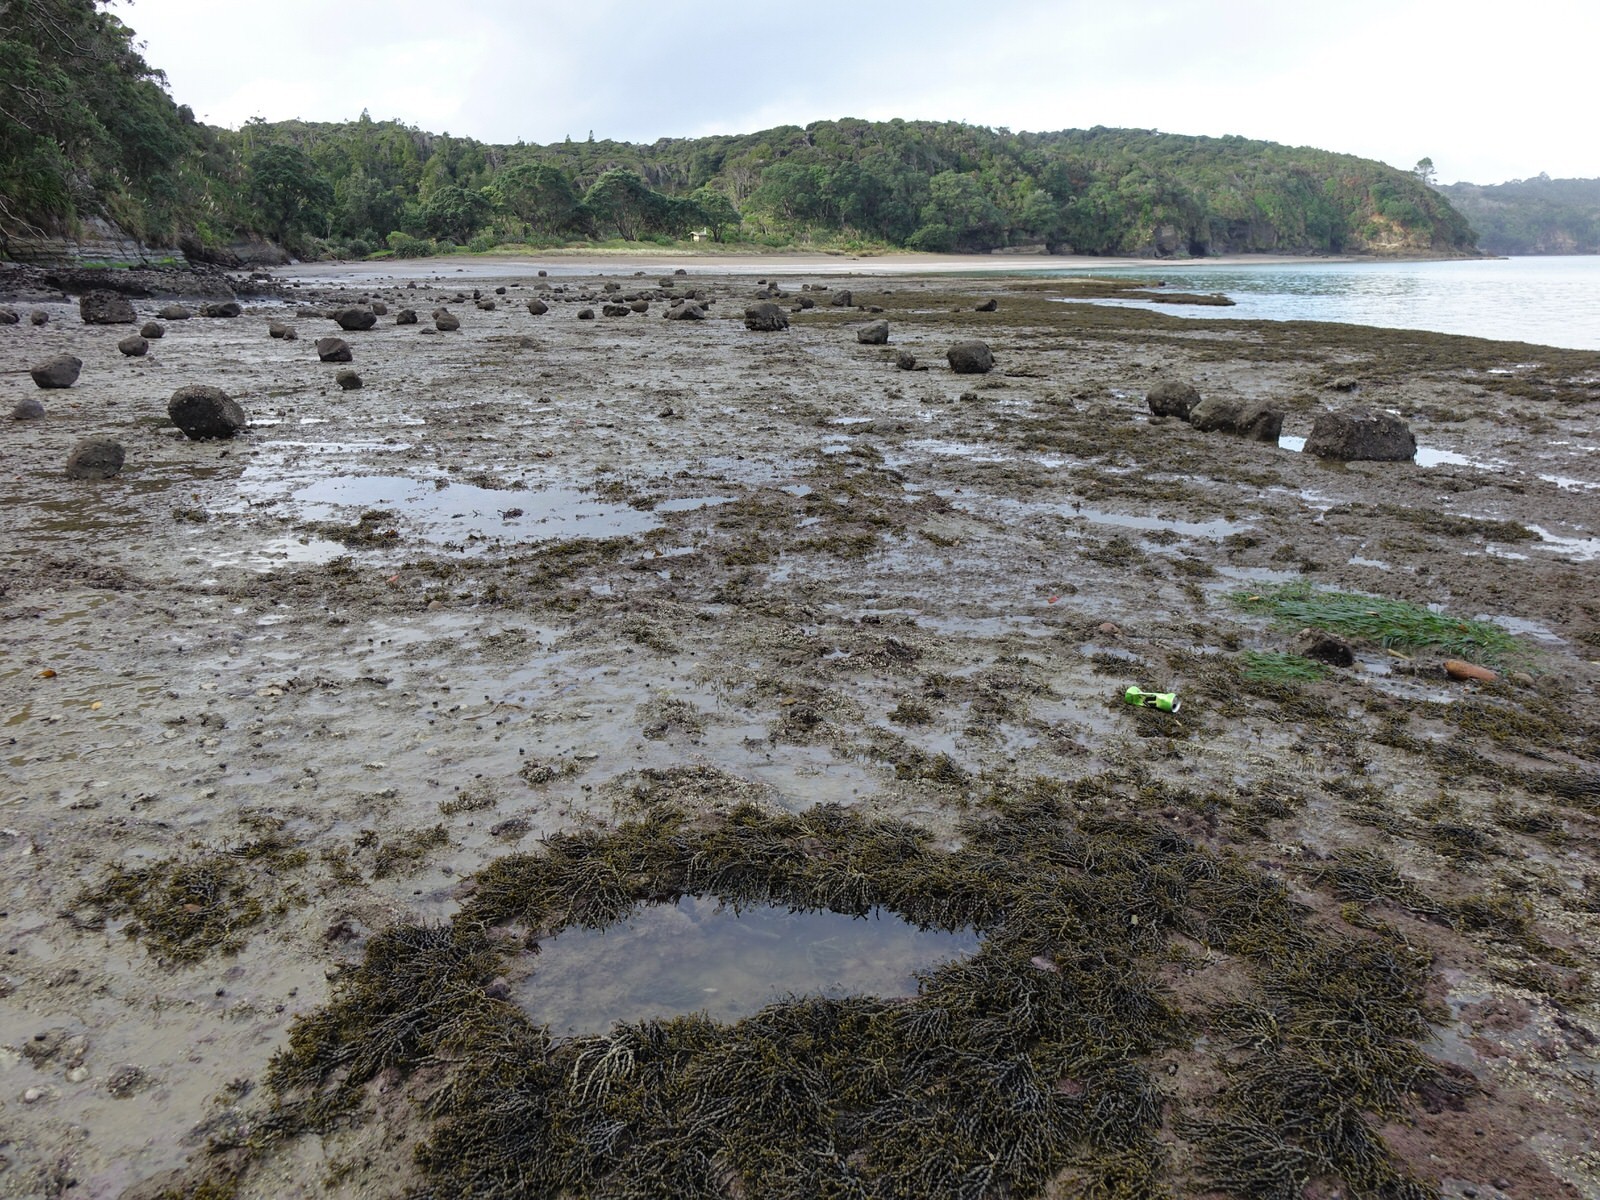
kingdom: Animalia
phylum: Echinodermata
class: Echinoidea
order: Camarodonta
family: Echinometridae
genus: Evechinus
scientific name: Evechinus chloroticus
